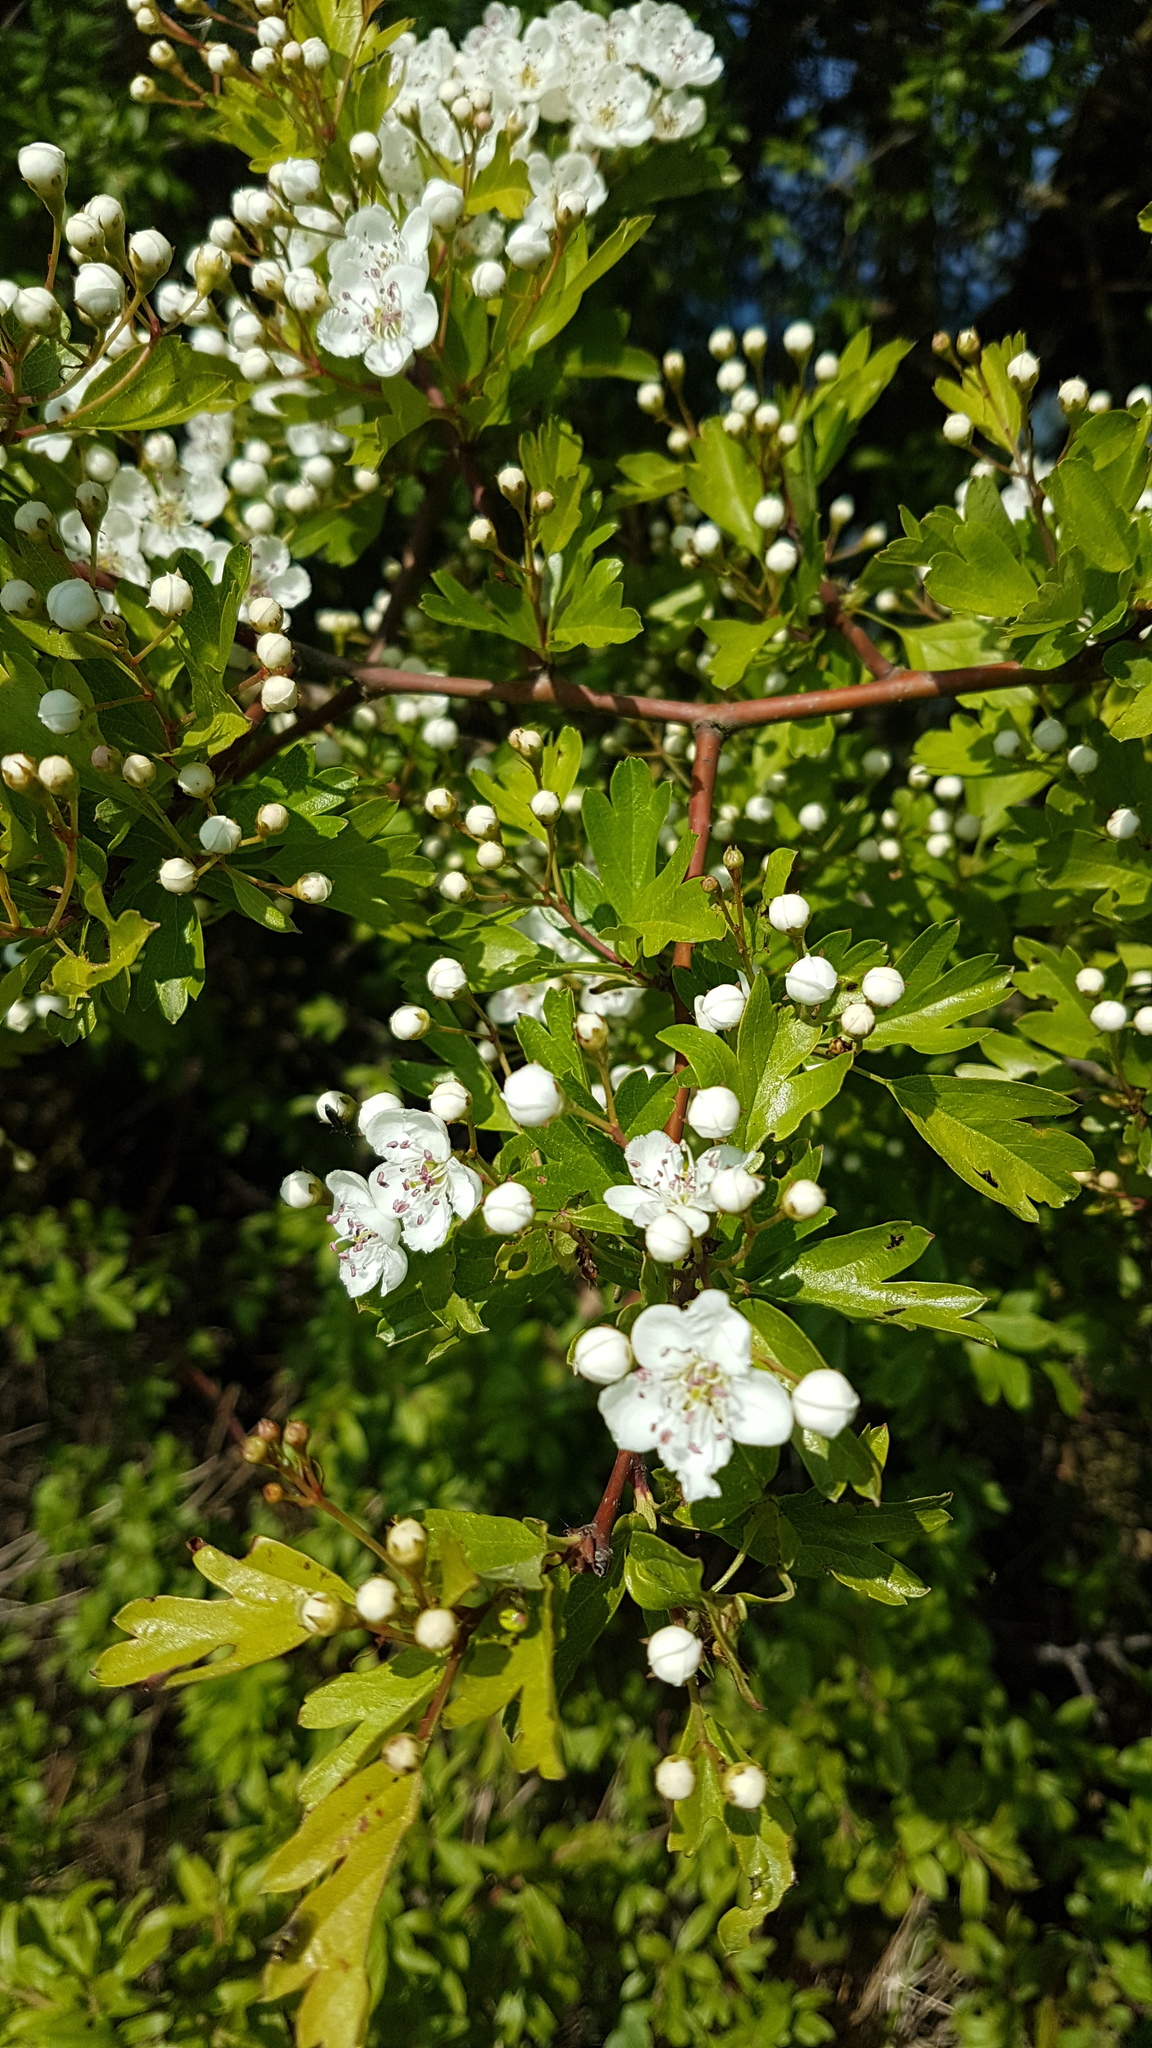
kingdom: Plantae
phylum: Tracheophyta
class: Magnoliopsida
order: Rosales
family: Rosaceae
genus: Crataegus
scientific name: Crataegus monogyna
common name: Hawthorn
